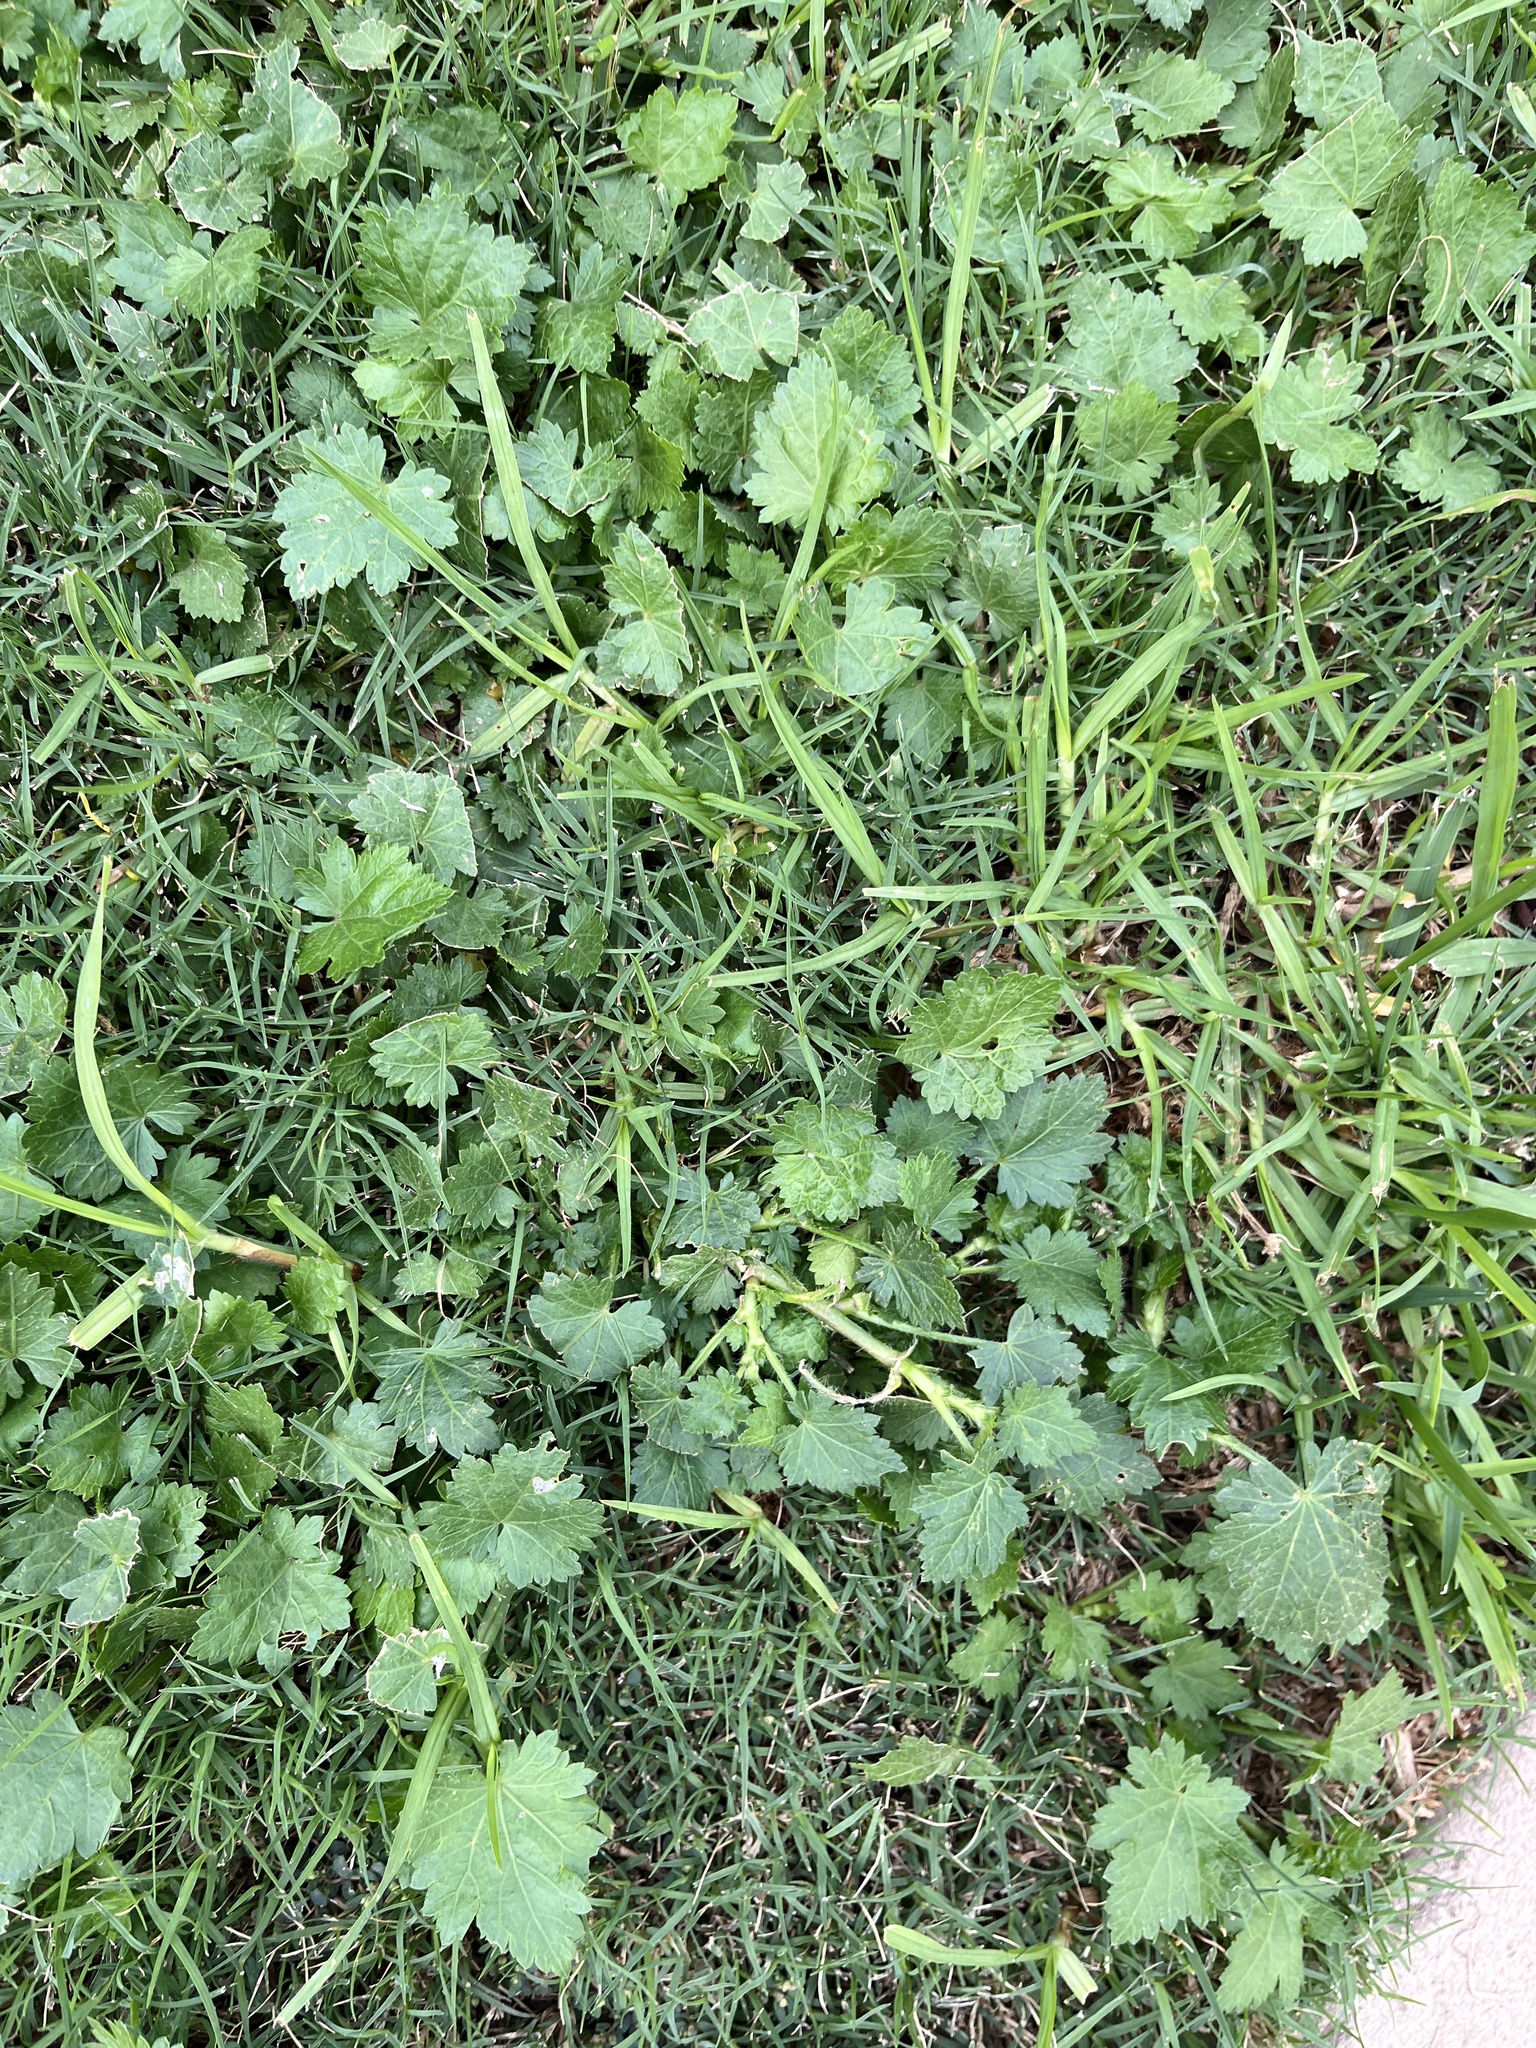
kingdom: Plantae
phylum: Tracheophyta
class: Magnoliopsida
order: Malvales
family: Malvaceae
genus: Modiola
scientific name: Modiola caroliniana
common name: Carolina bristlemallow
